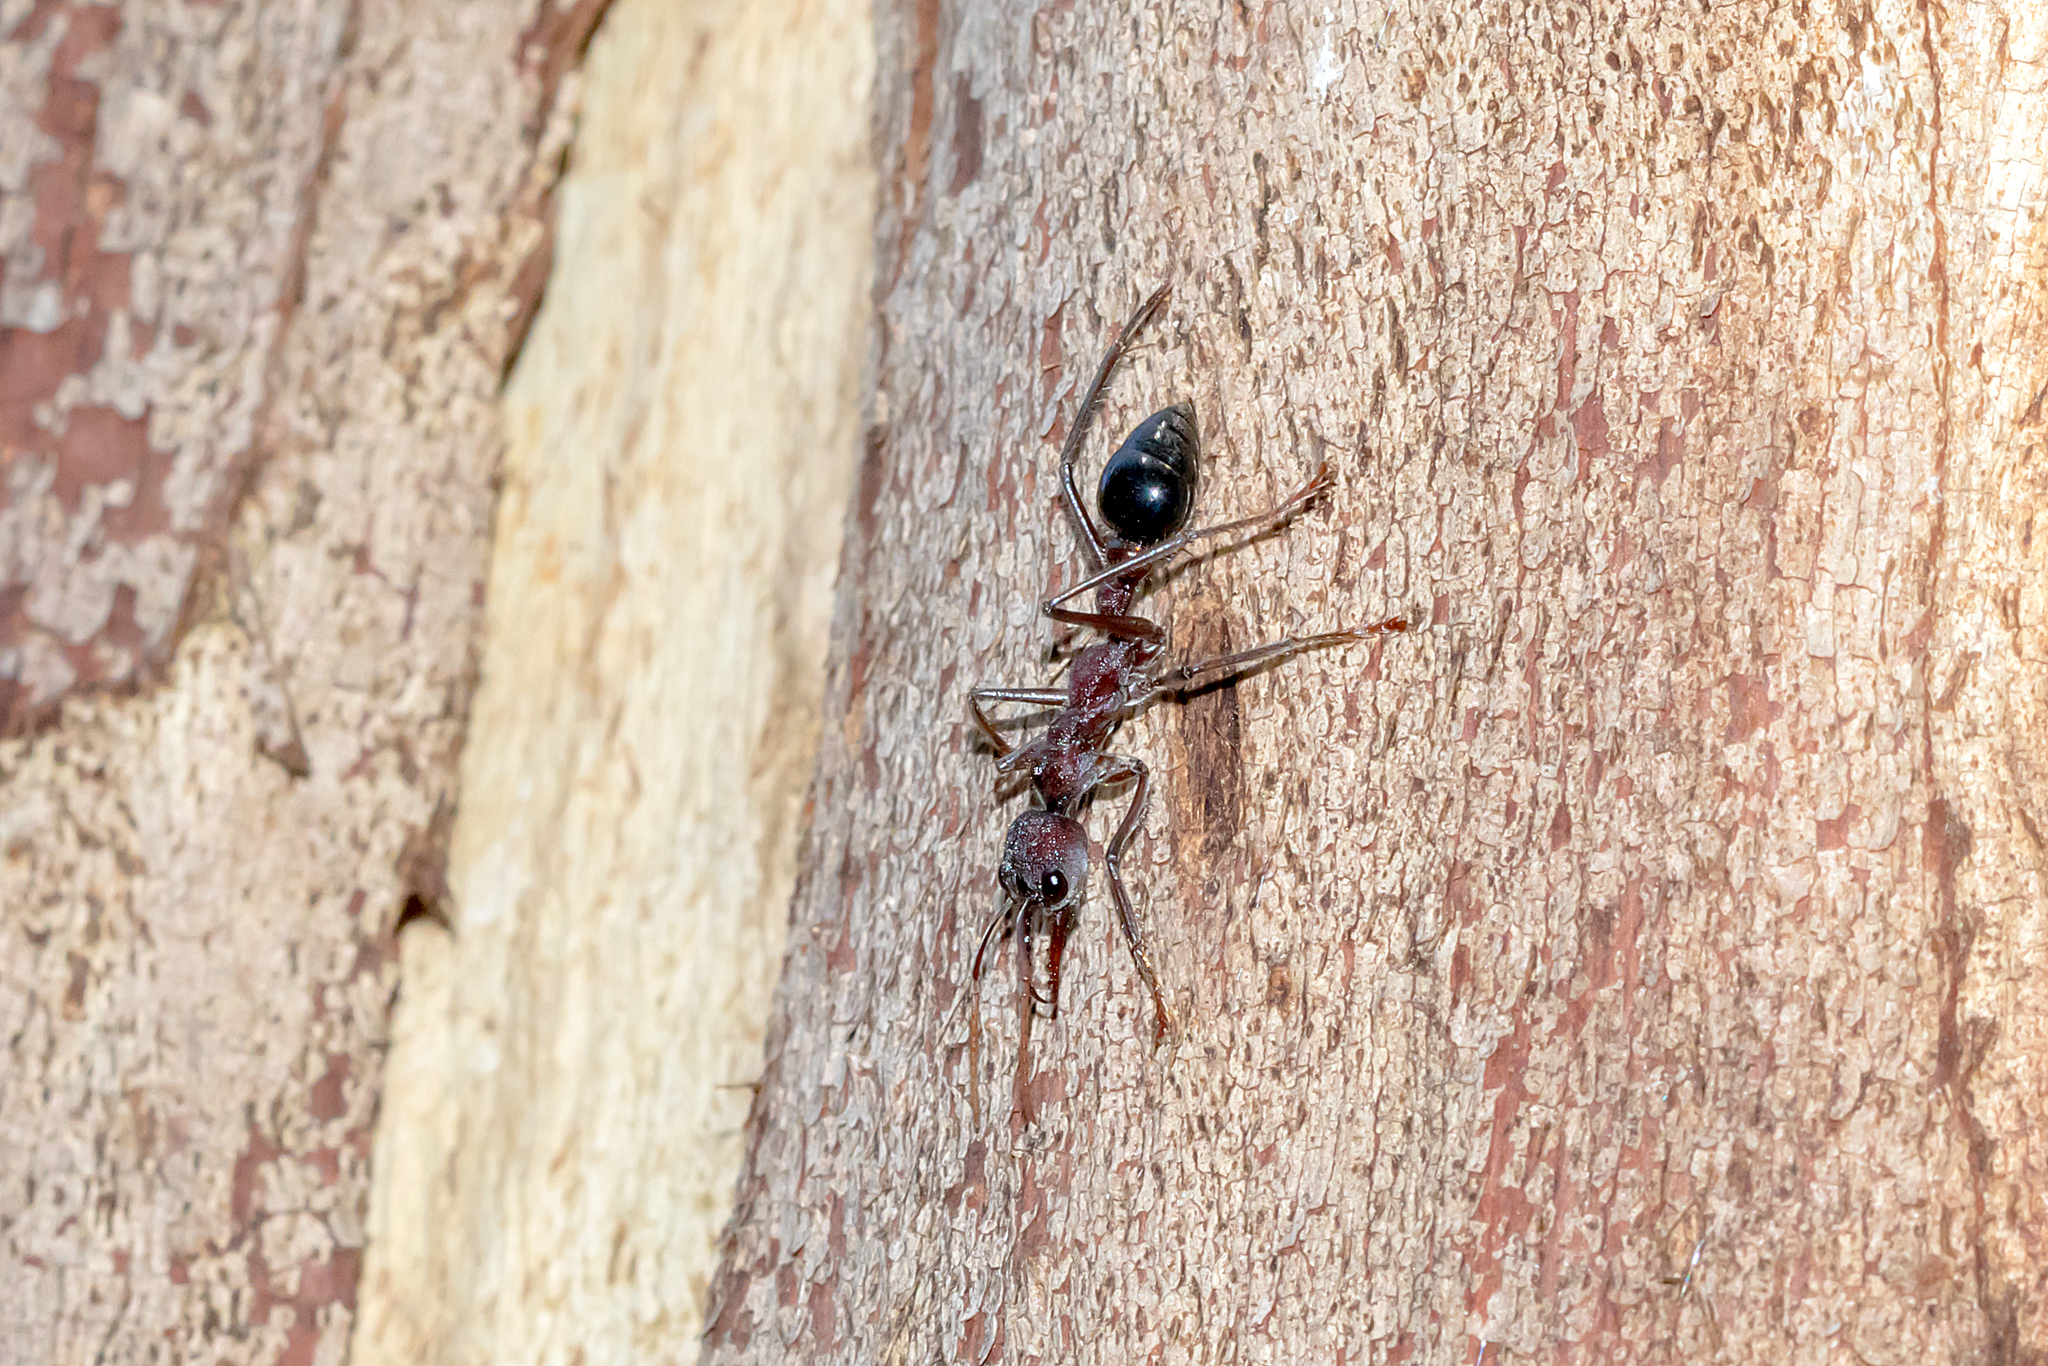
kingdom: Animalia
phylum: Arthropoda
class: Insecta
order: Hymenoptera
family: Formicidae
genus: Myrmecia
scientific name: Myrmecia simillima
